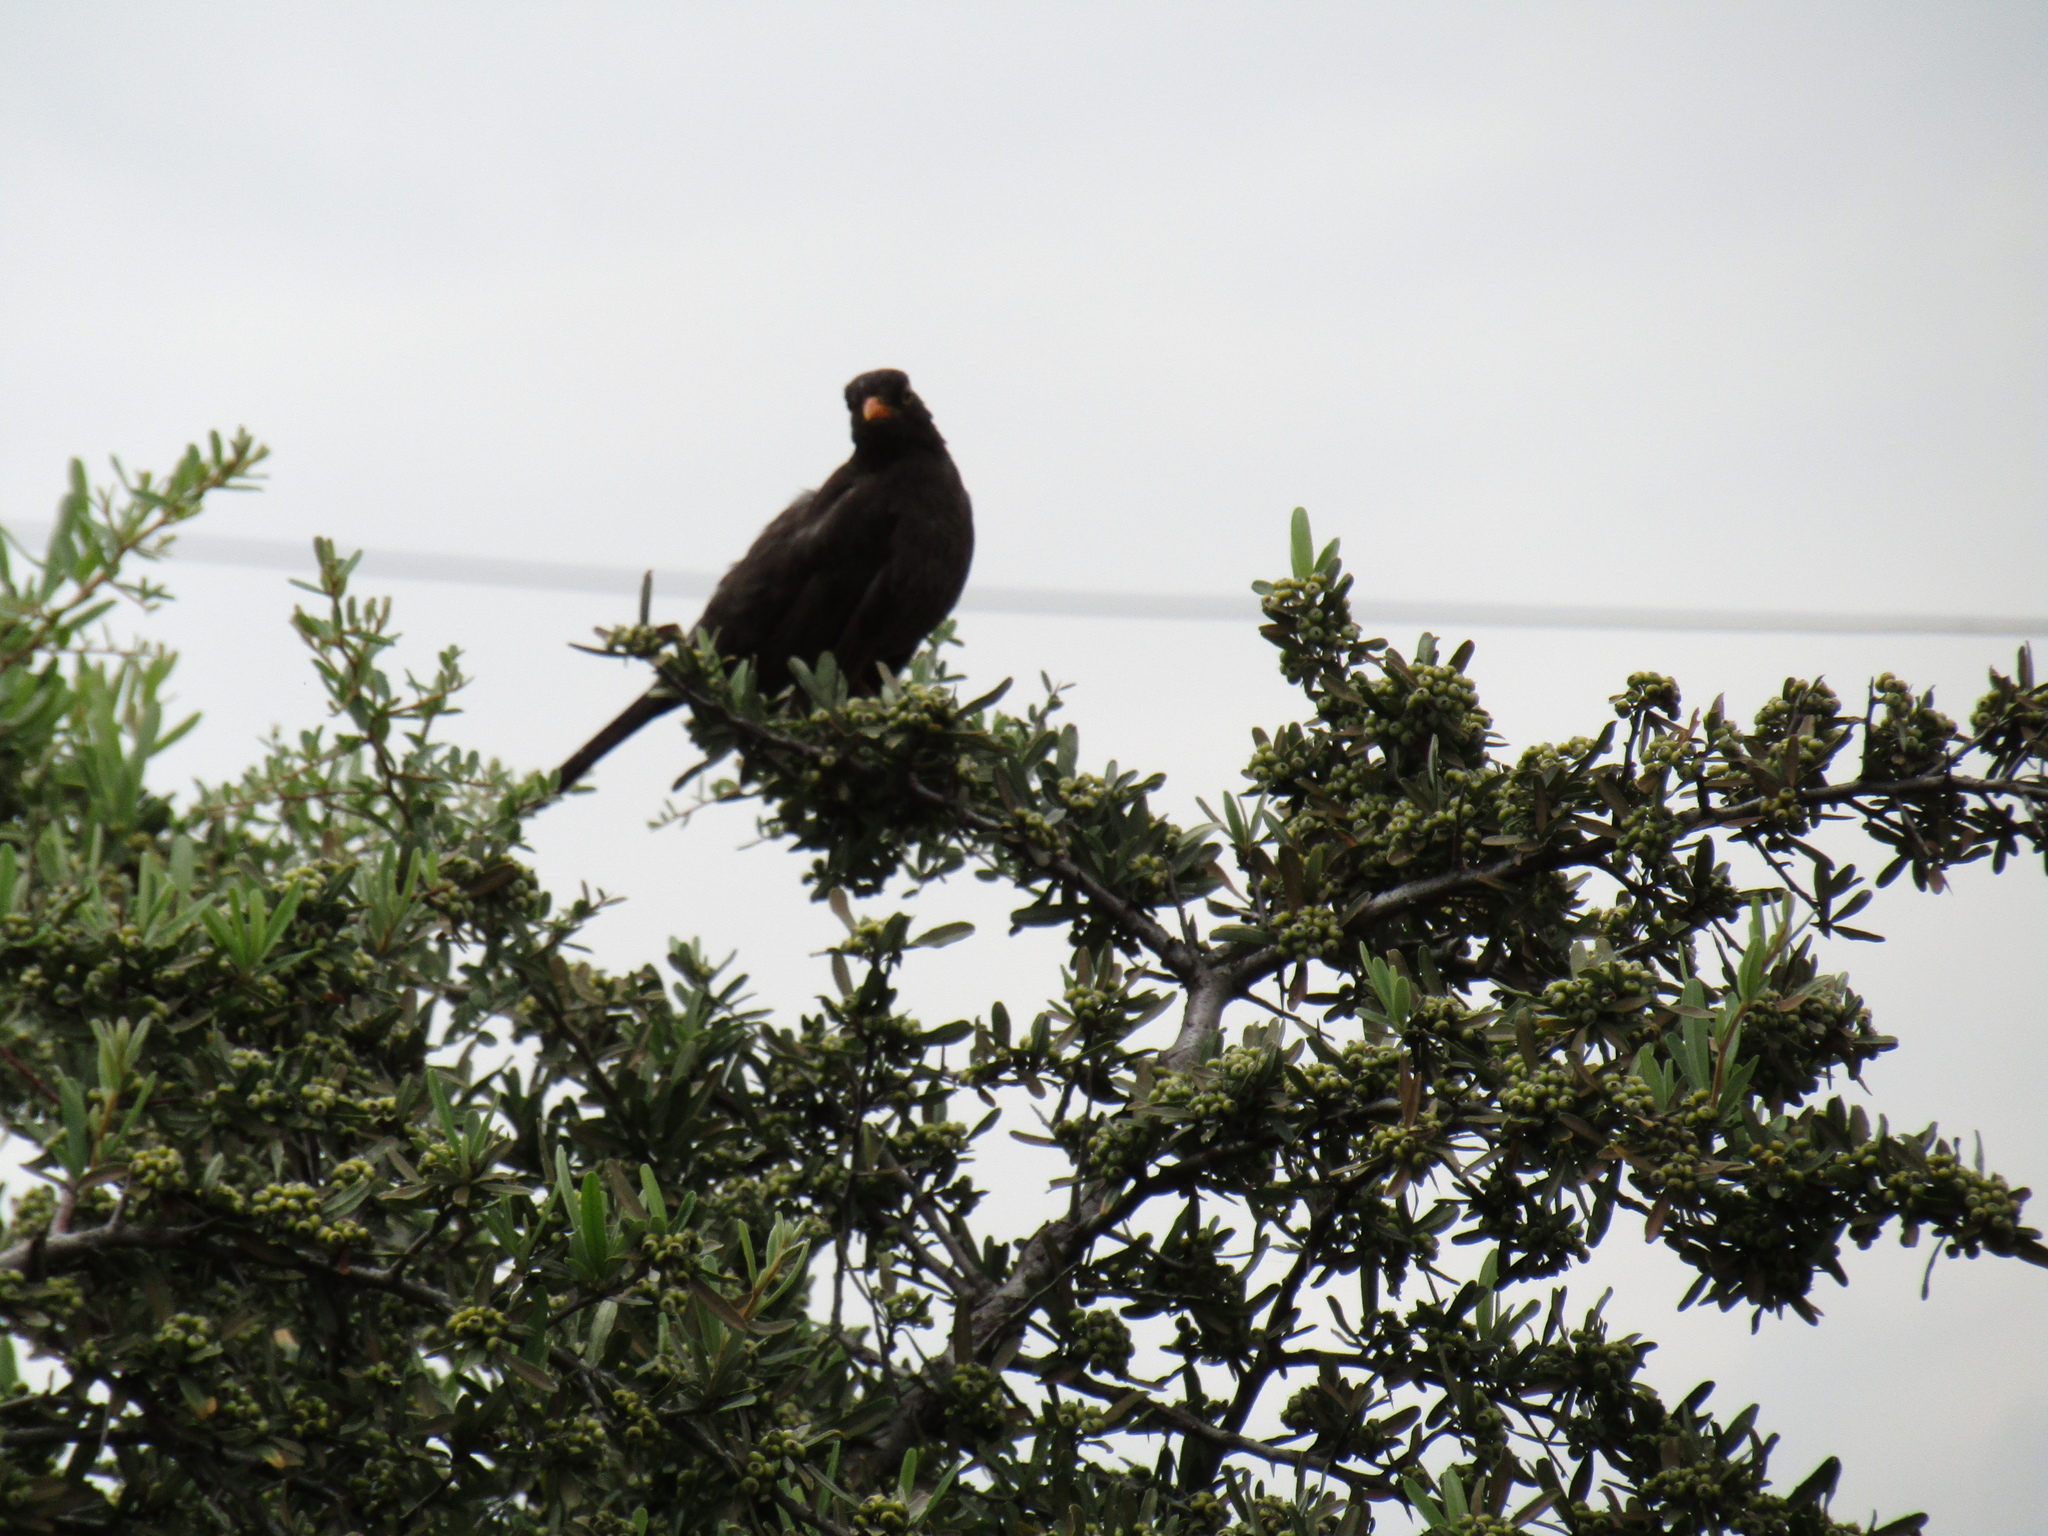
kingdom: Animalia
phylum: Chordata
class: Aves
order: Passeriformes
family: Turdidae
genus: Turdus
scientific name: Turdus chiguanco
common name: Chiguanco thrush
